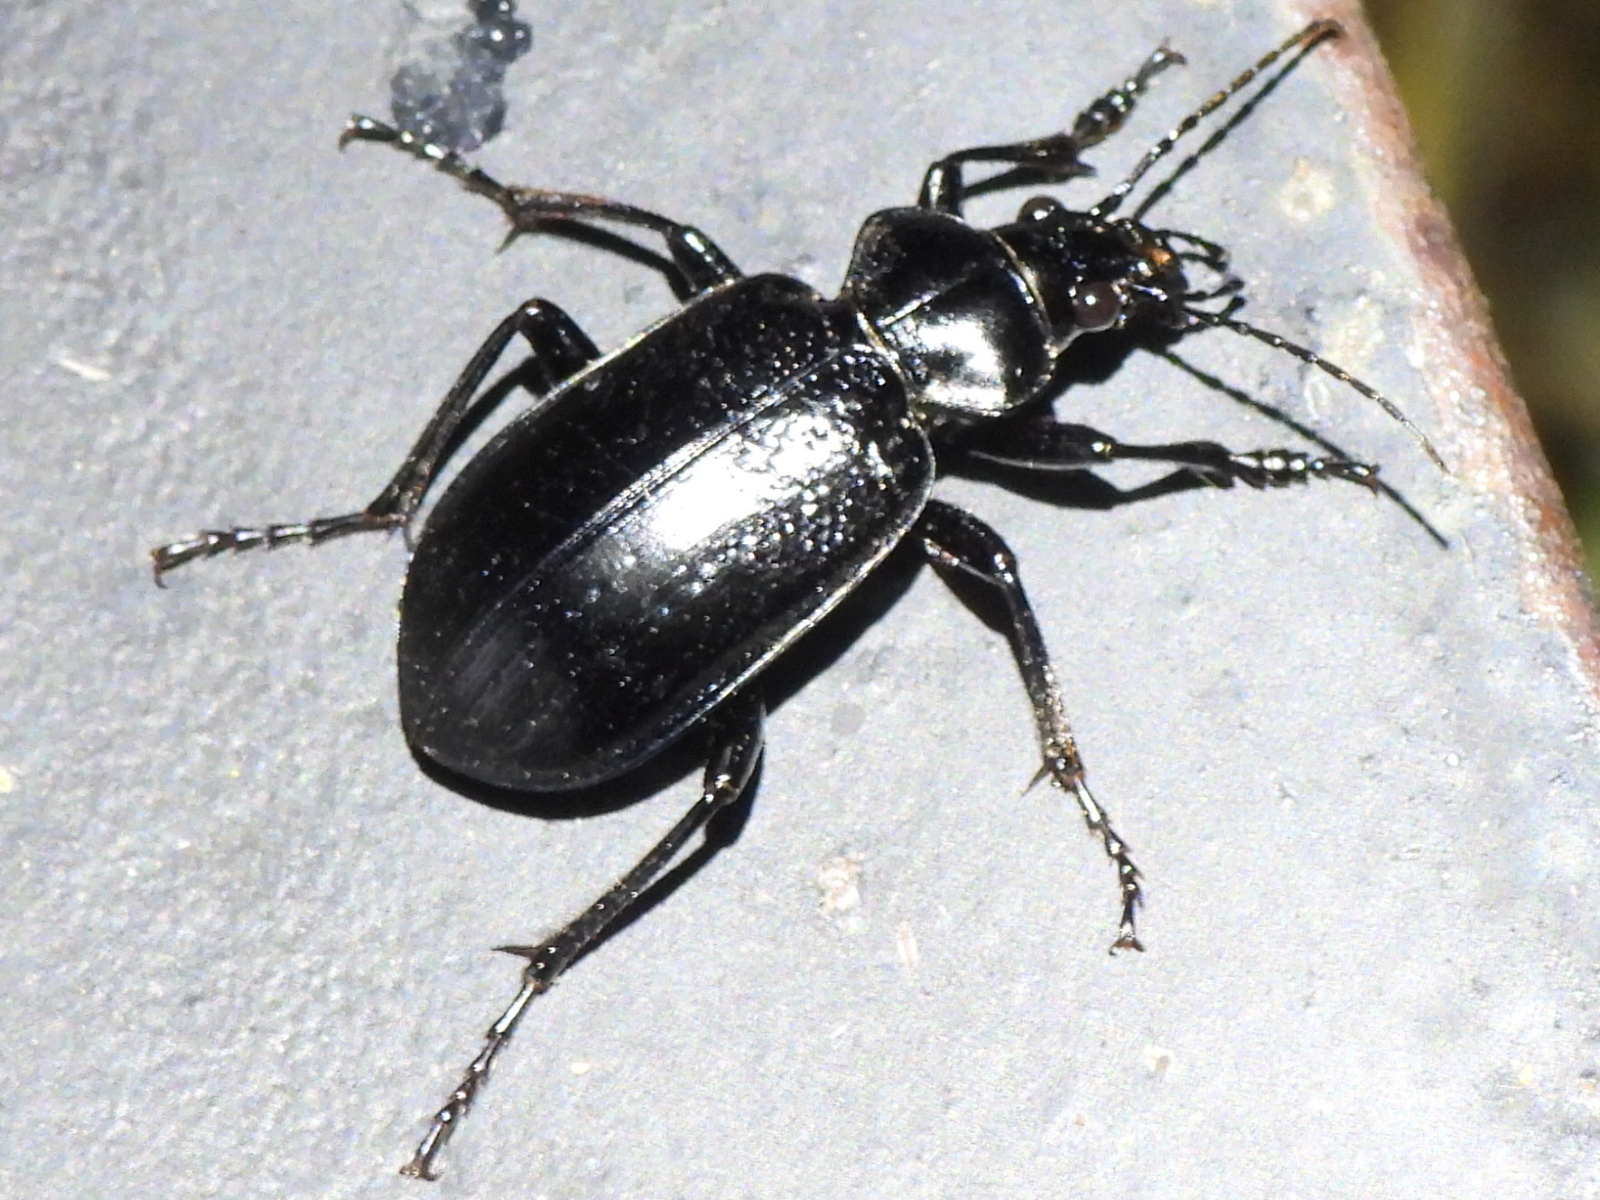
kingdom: Animalia
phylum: Arthropoda
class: Insecta
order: Coleoptera
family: Carabidae
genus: Calosoma
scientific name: Calosoma marginale
